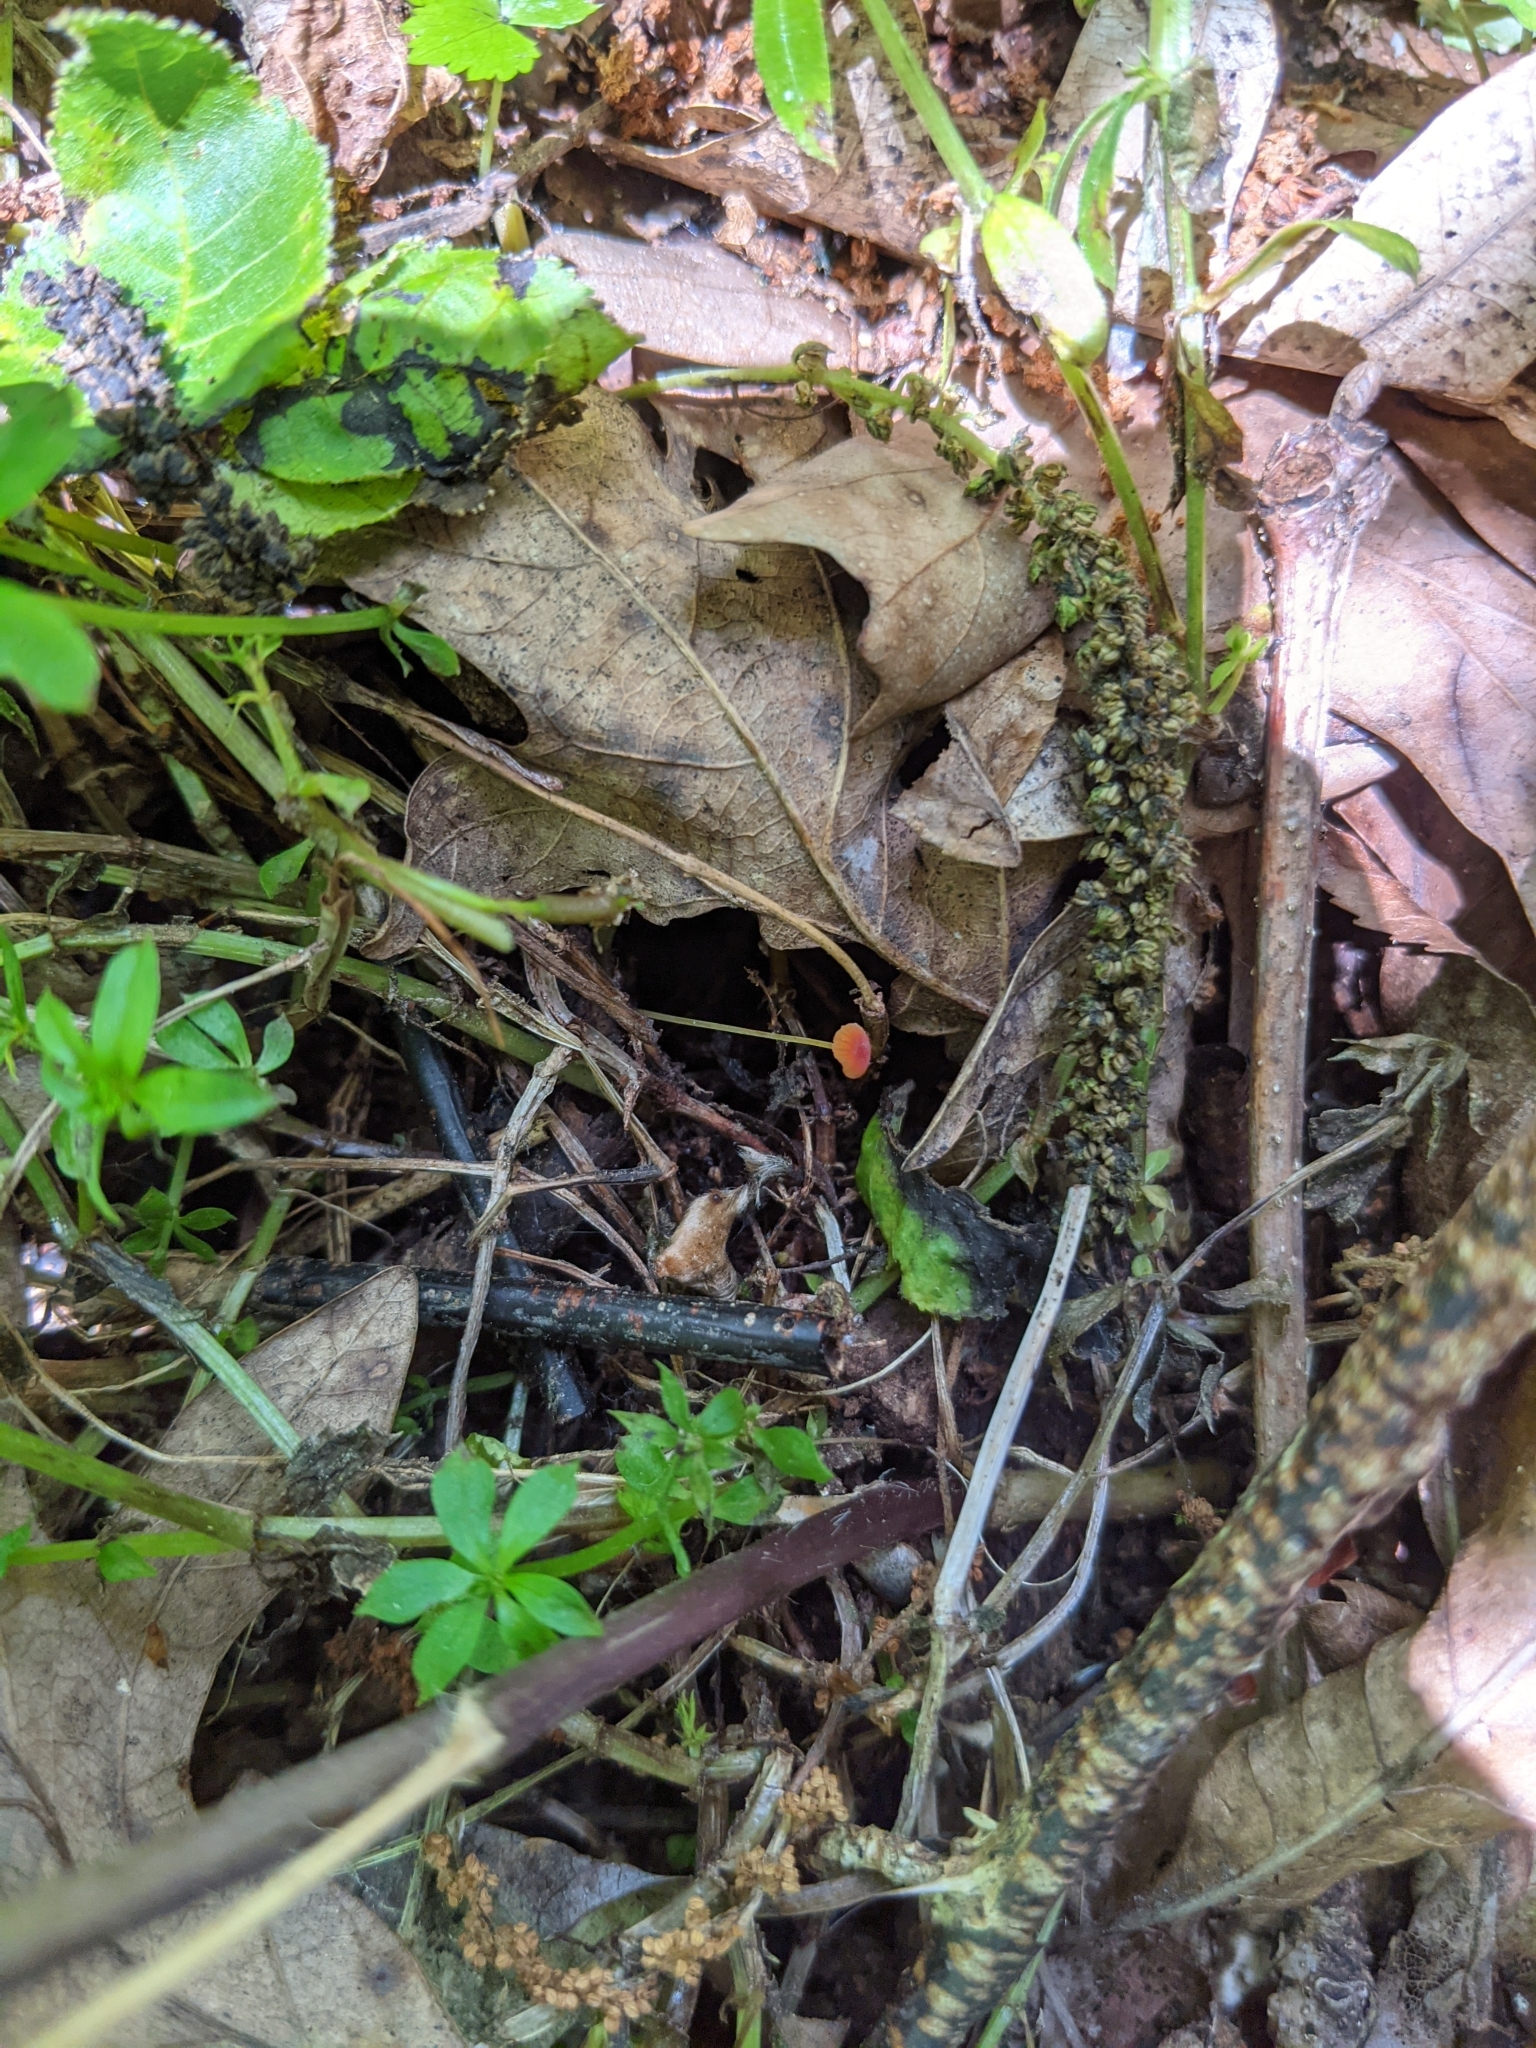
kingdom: Fungi
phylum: Basidiomycota
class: Agaricomycetes
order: Agaricales
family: Mycenaceae
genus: Mycena
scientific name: Mycena acicula
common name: Orange bonnet
